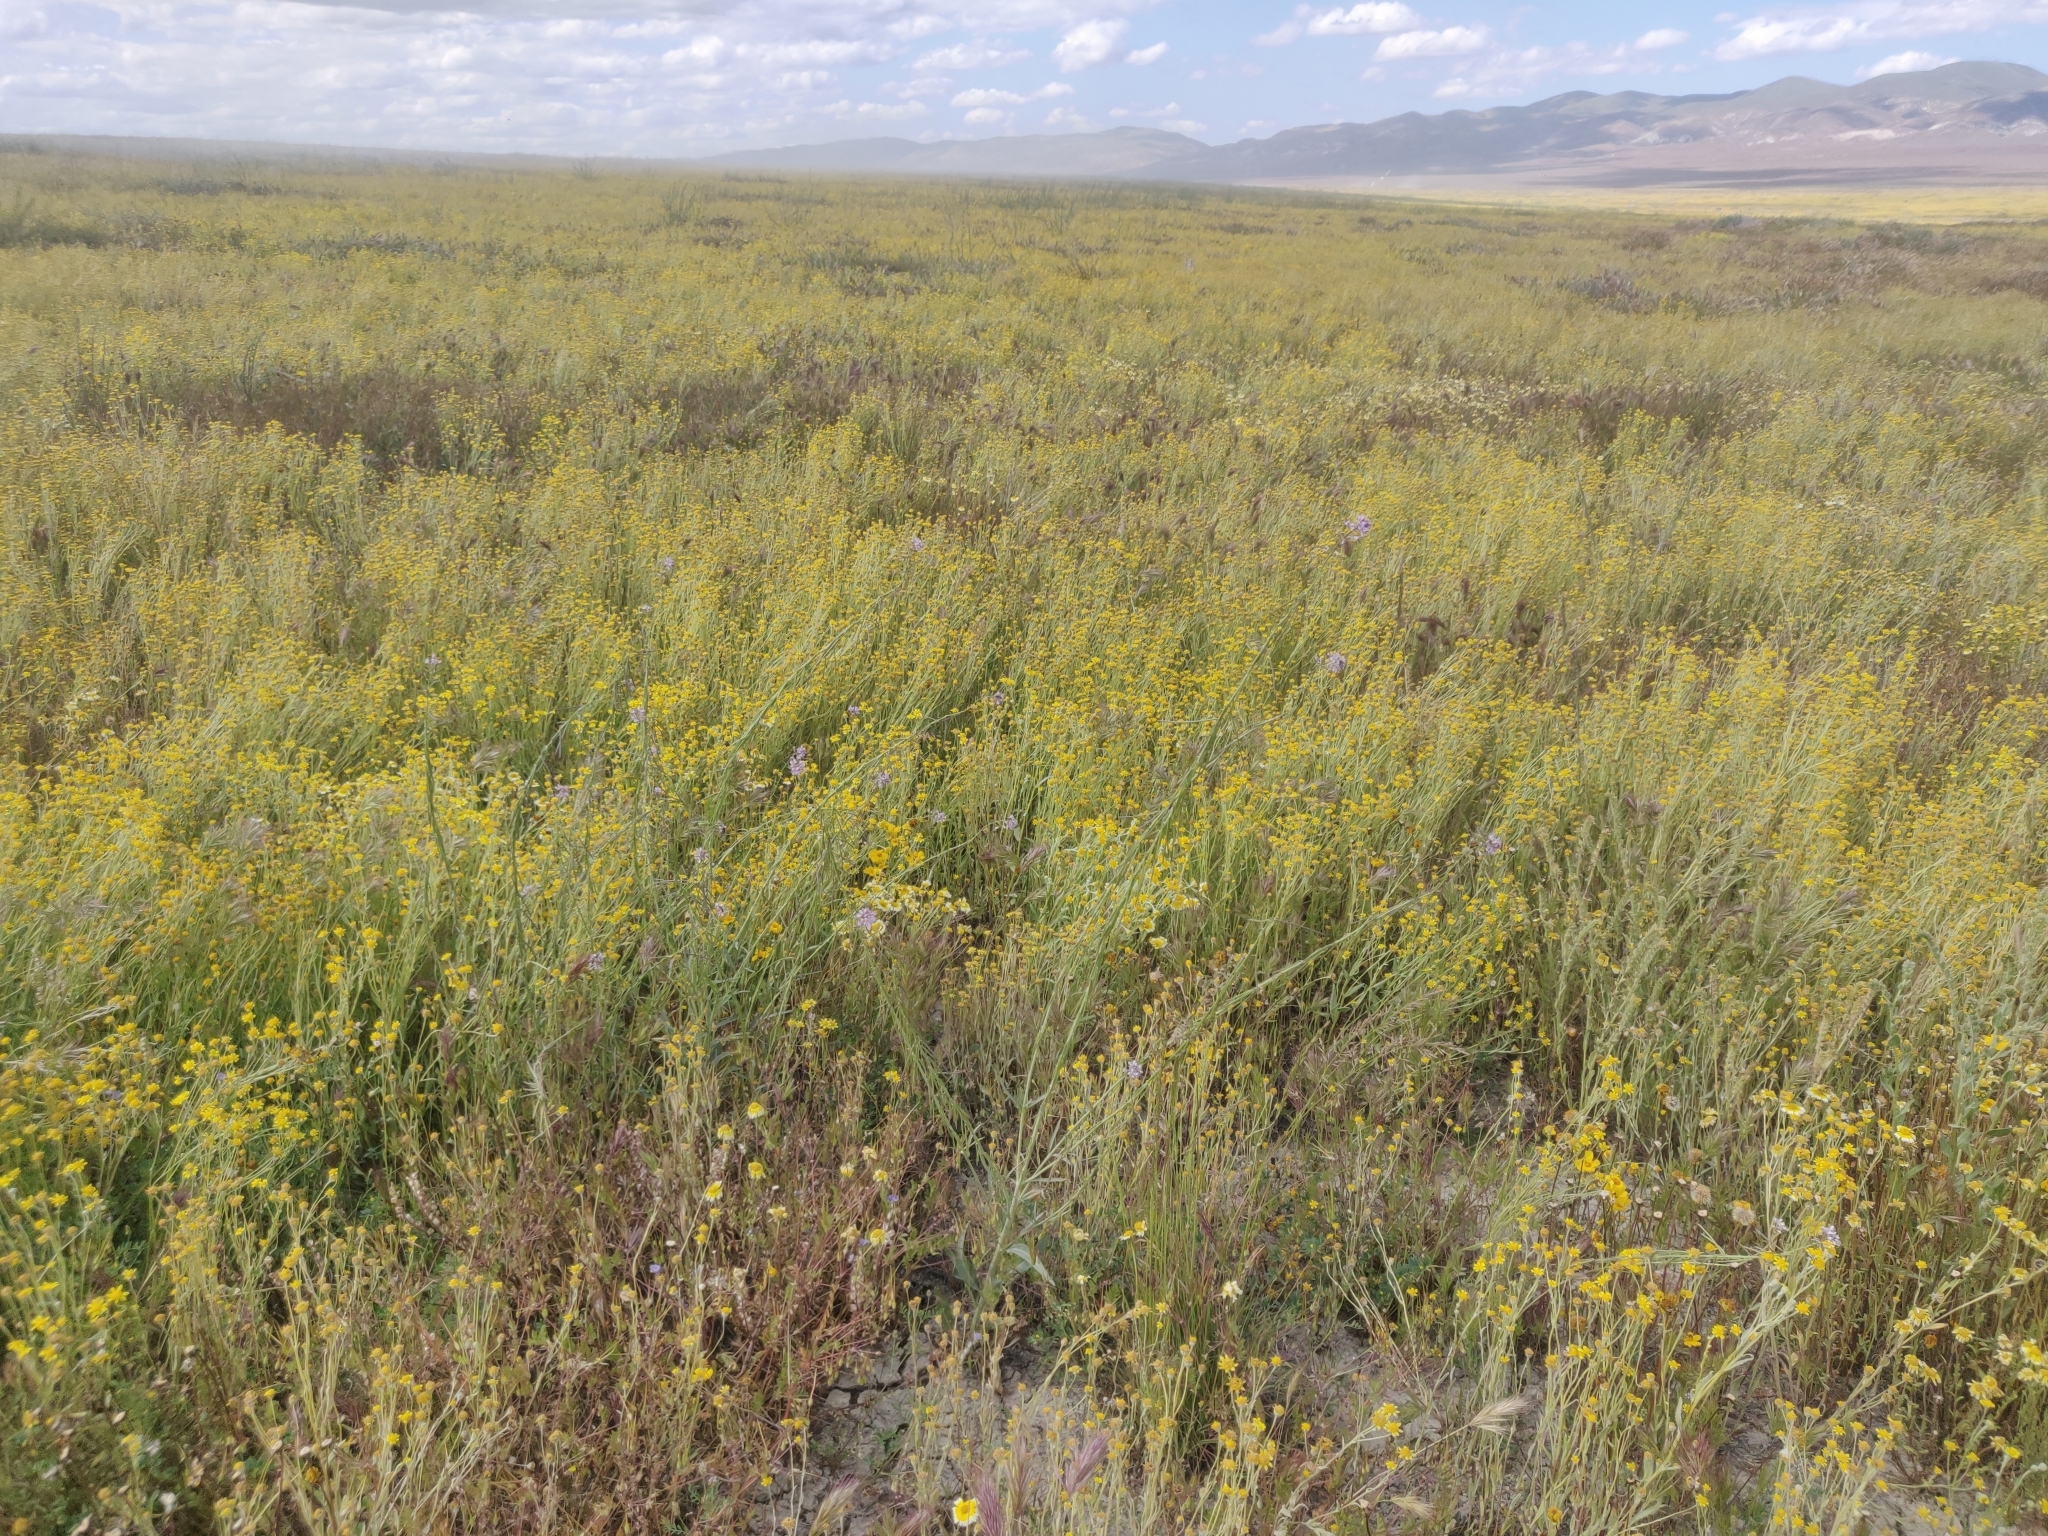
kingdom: Plantae
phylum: Tracheophyta
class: Magnoliopsida
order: Brassicales
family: Brassicaceae
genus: Streptanthus
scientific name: Streptanthus anceps
